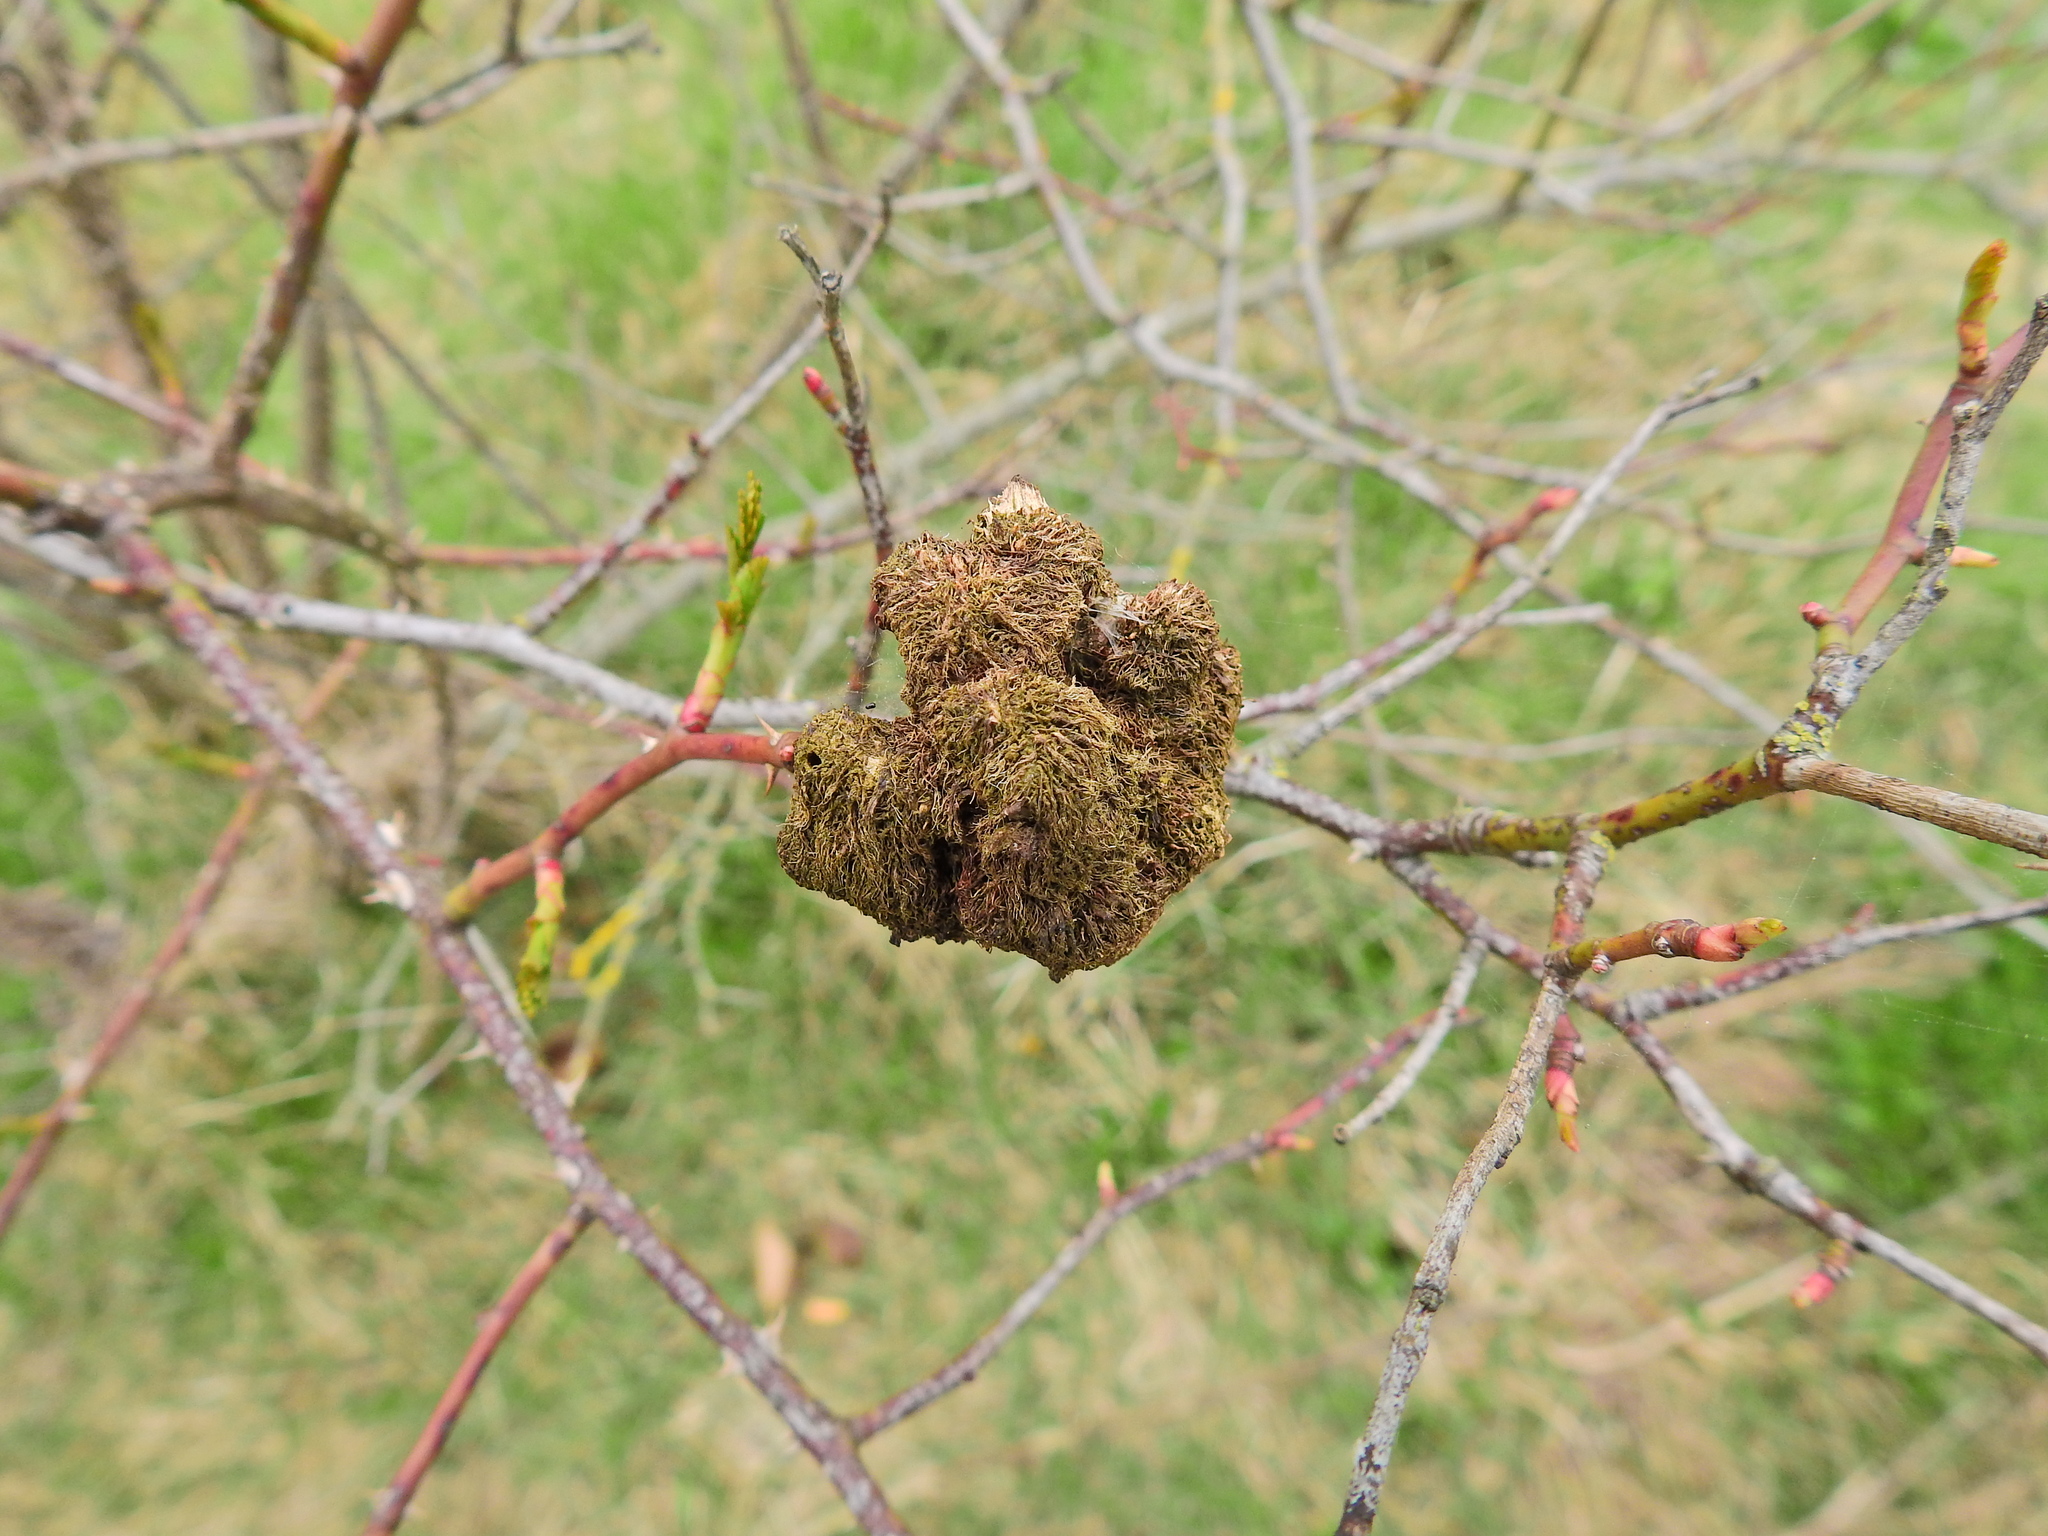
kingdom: Animalia
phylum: Arthropoda
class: Insecta
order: Hymenoptera
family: Cynipidae
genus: Diplolepis
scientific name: Diplolepis rosae
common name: Bedeguar gall
